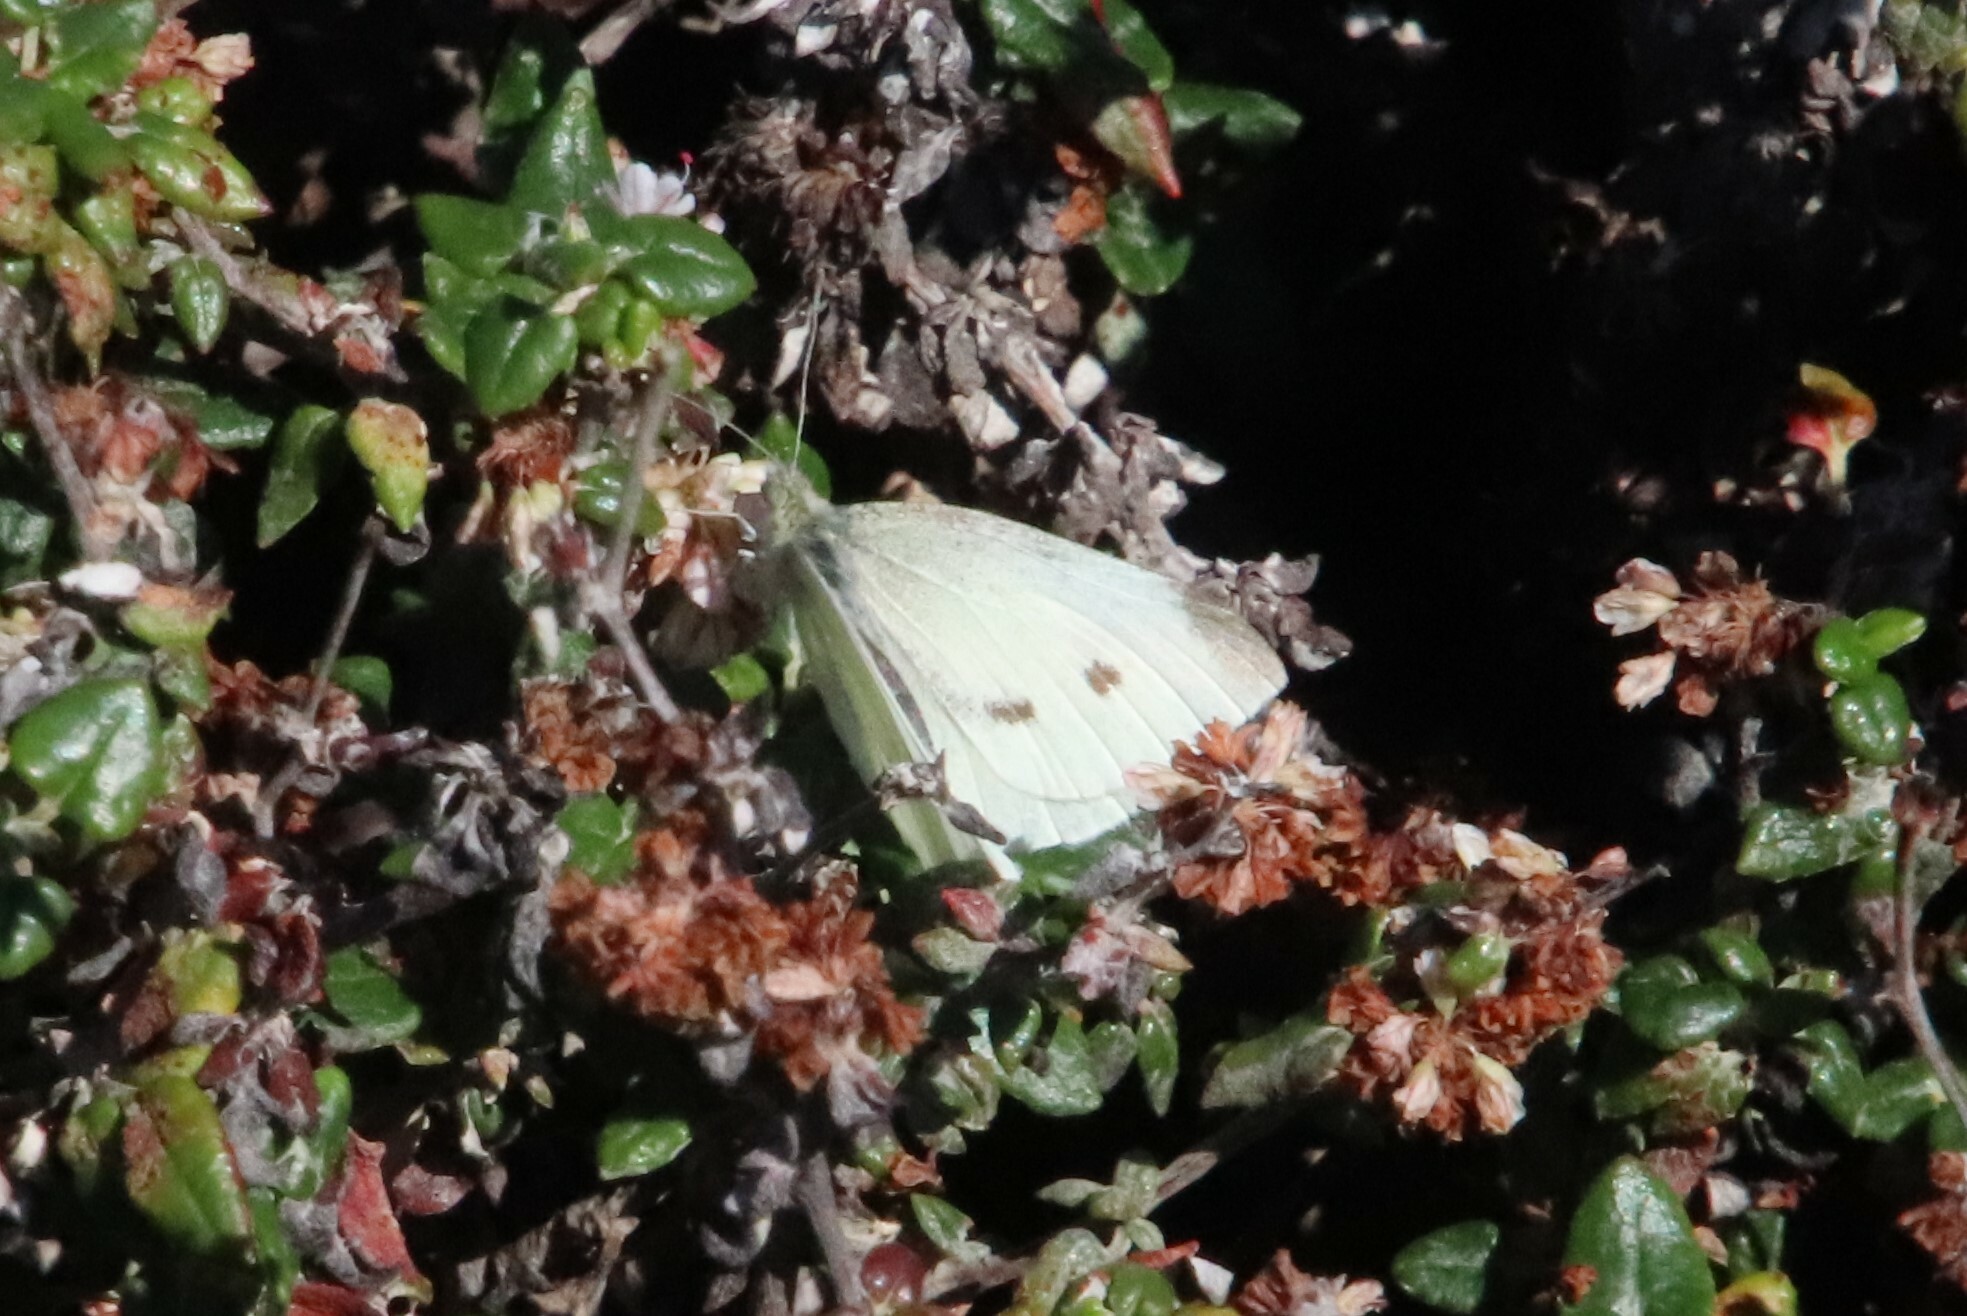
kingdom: Animalia
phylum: Arthropoda
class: Insecta
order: Lepidoptera
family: Pieridae
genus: Pieris
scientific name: Pieris rapae
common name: Small white
